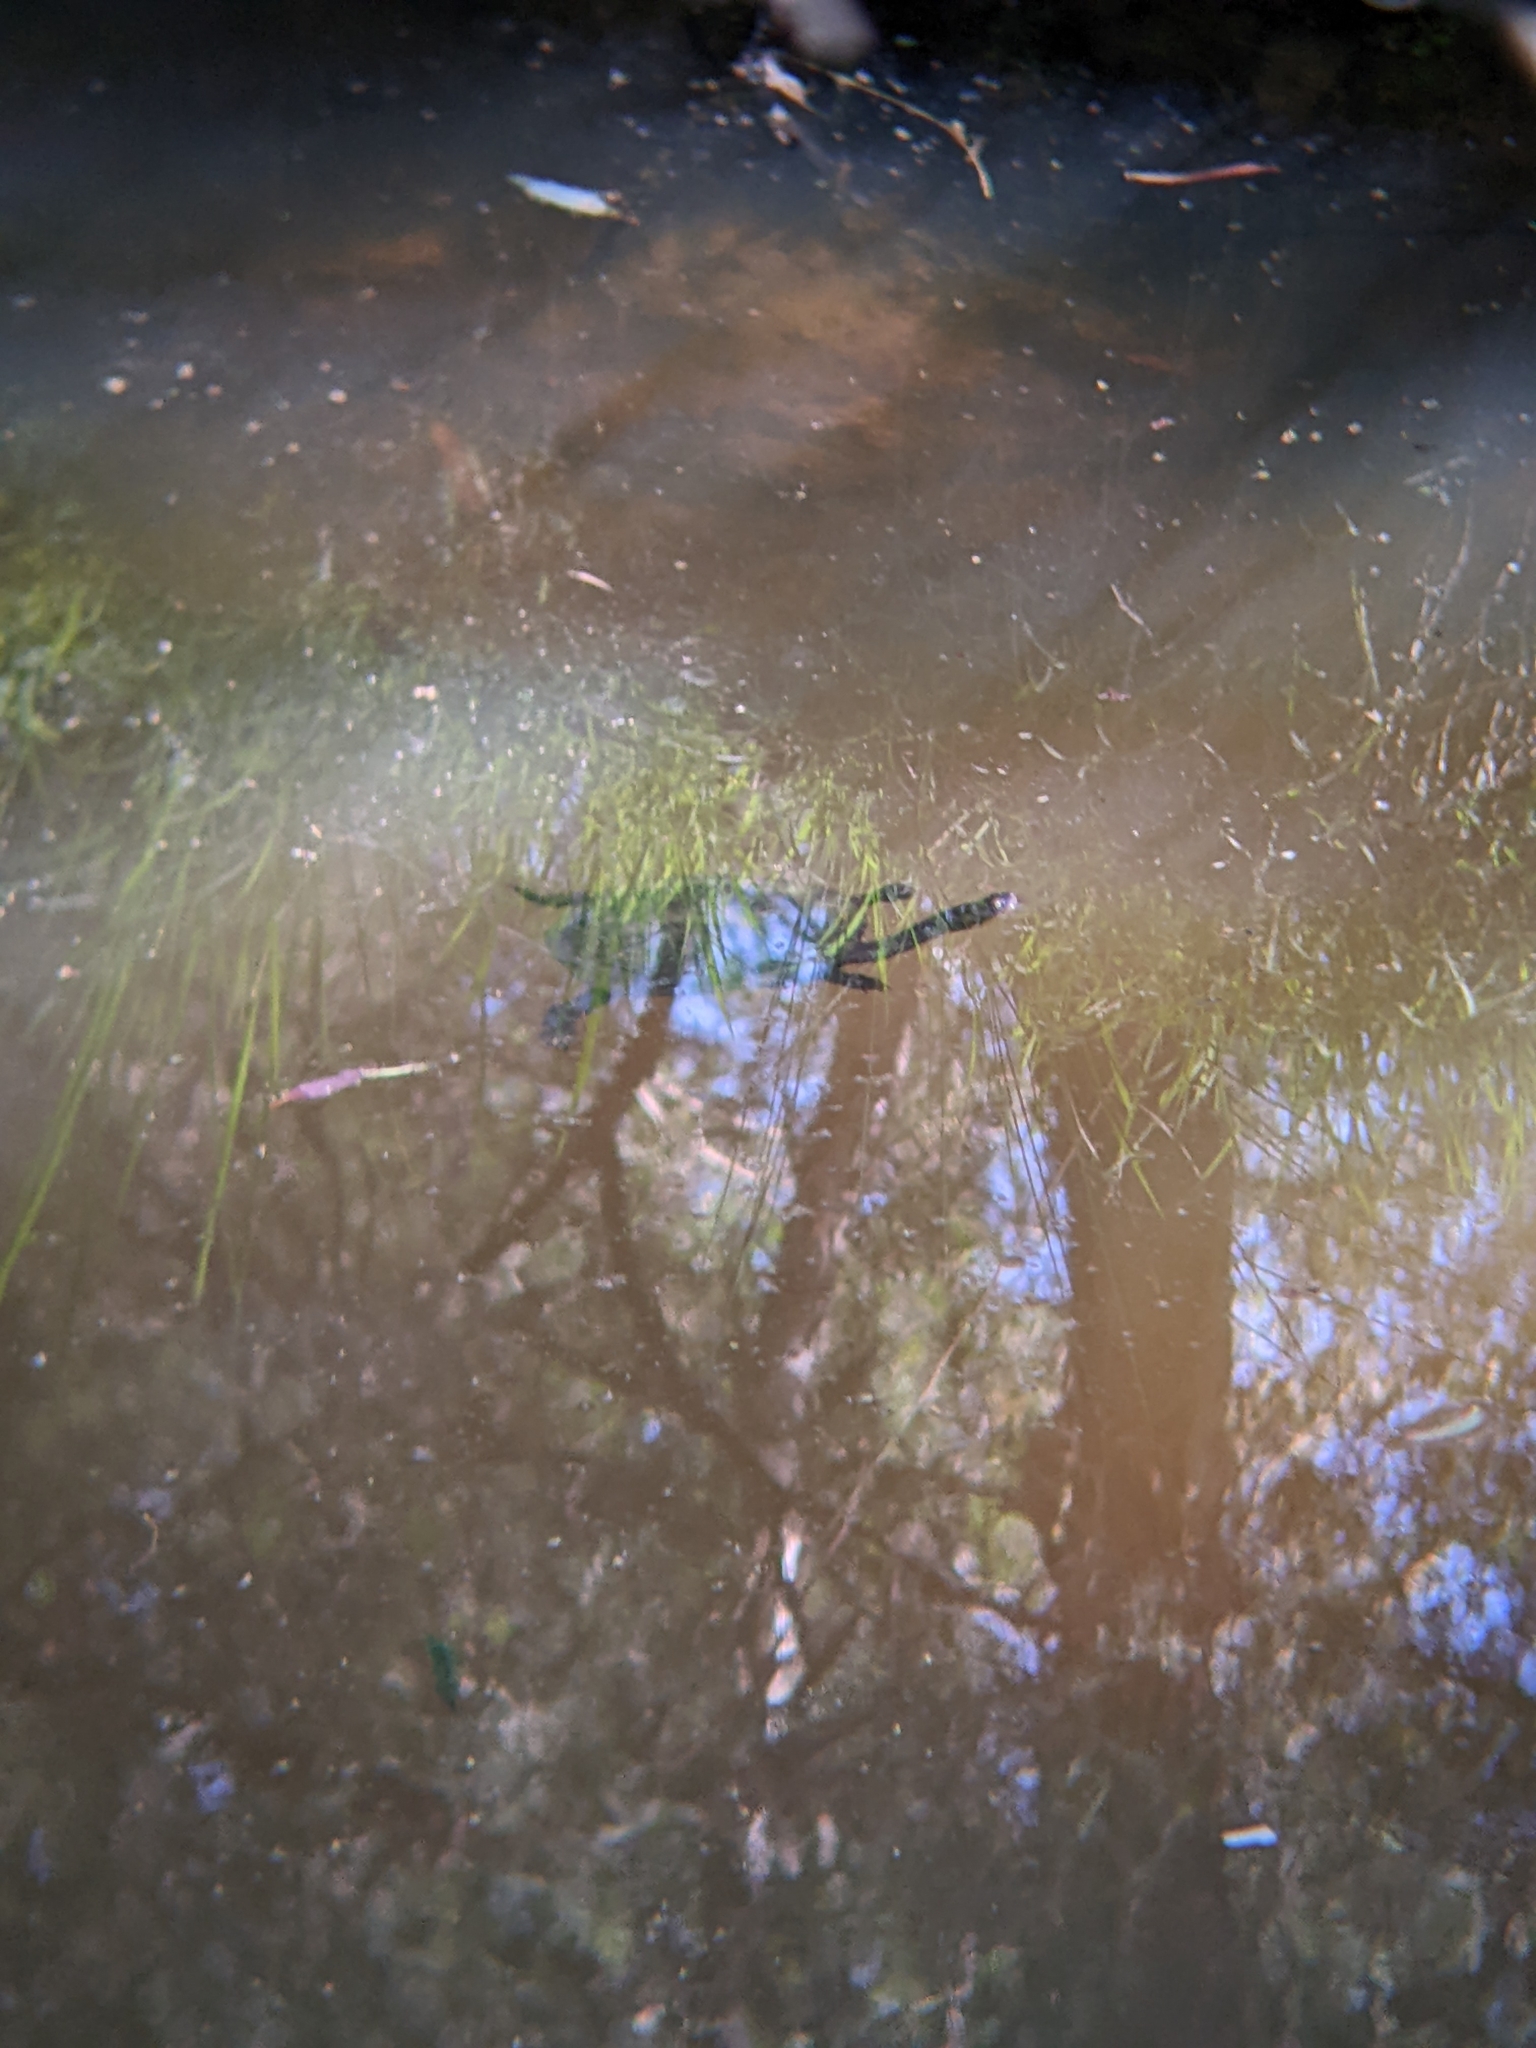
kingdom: Animalia
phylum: Chordata
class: Testudines
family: Chelidae
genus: Chelodina
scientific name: Chelodina longicollis
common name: Eastern snake-necked turtle
